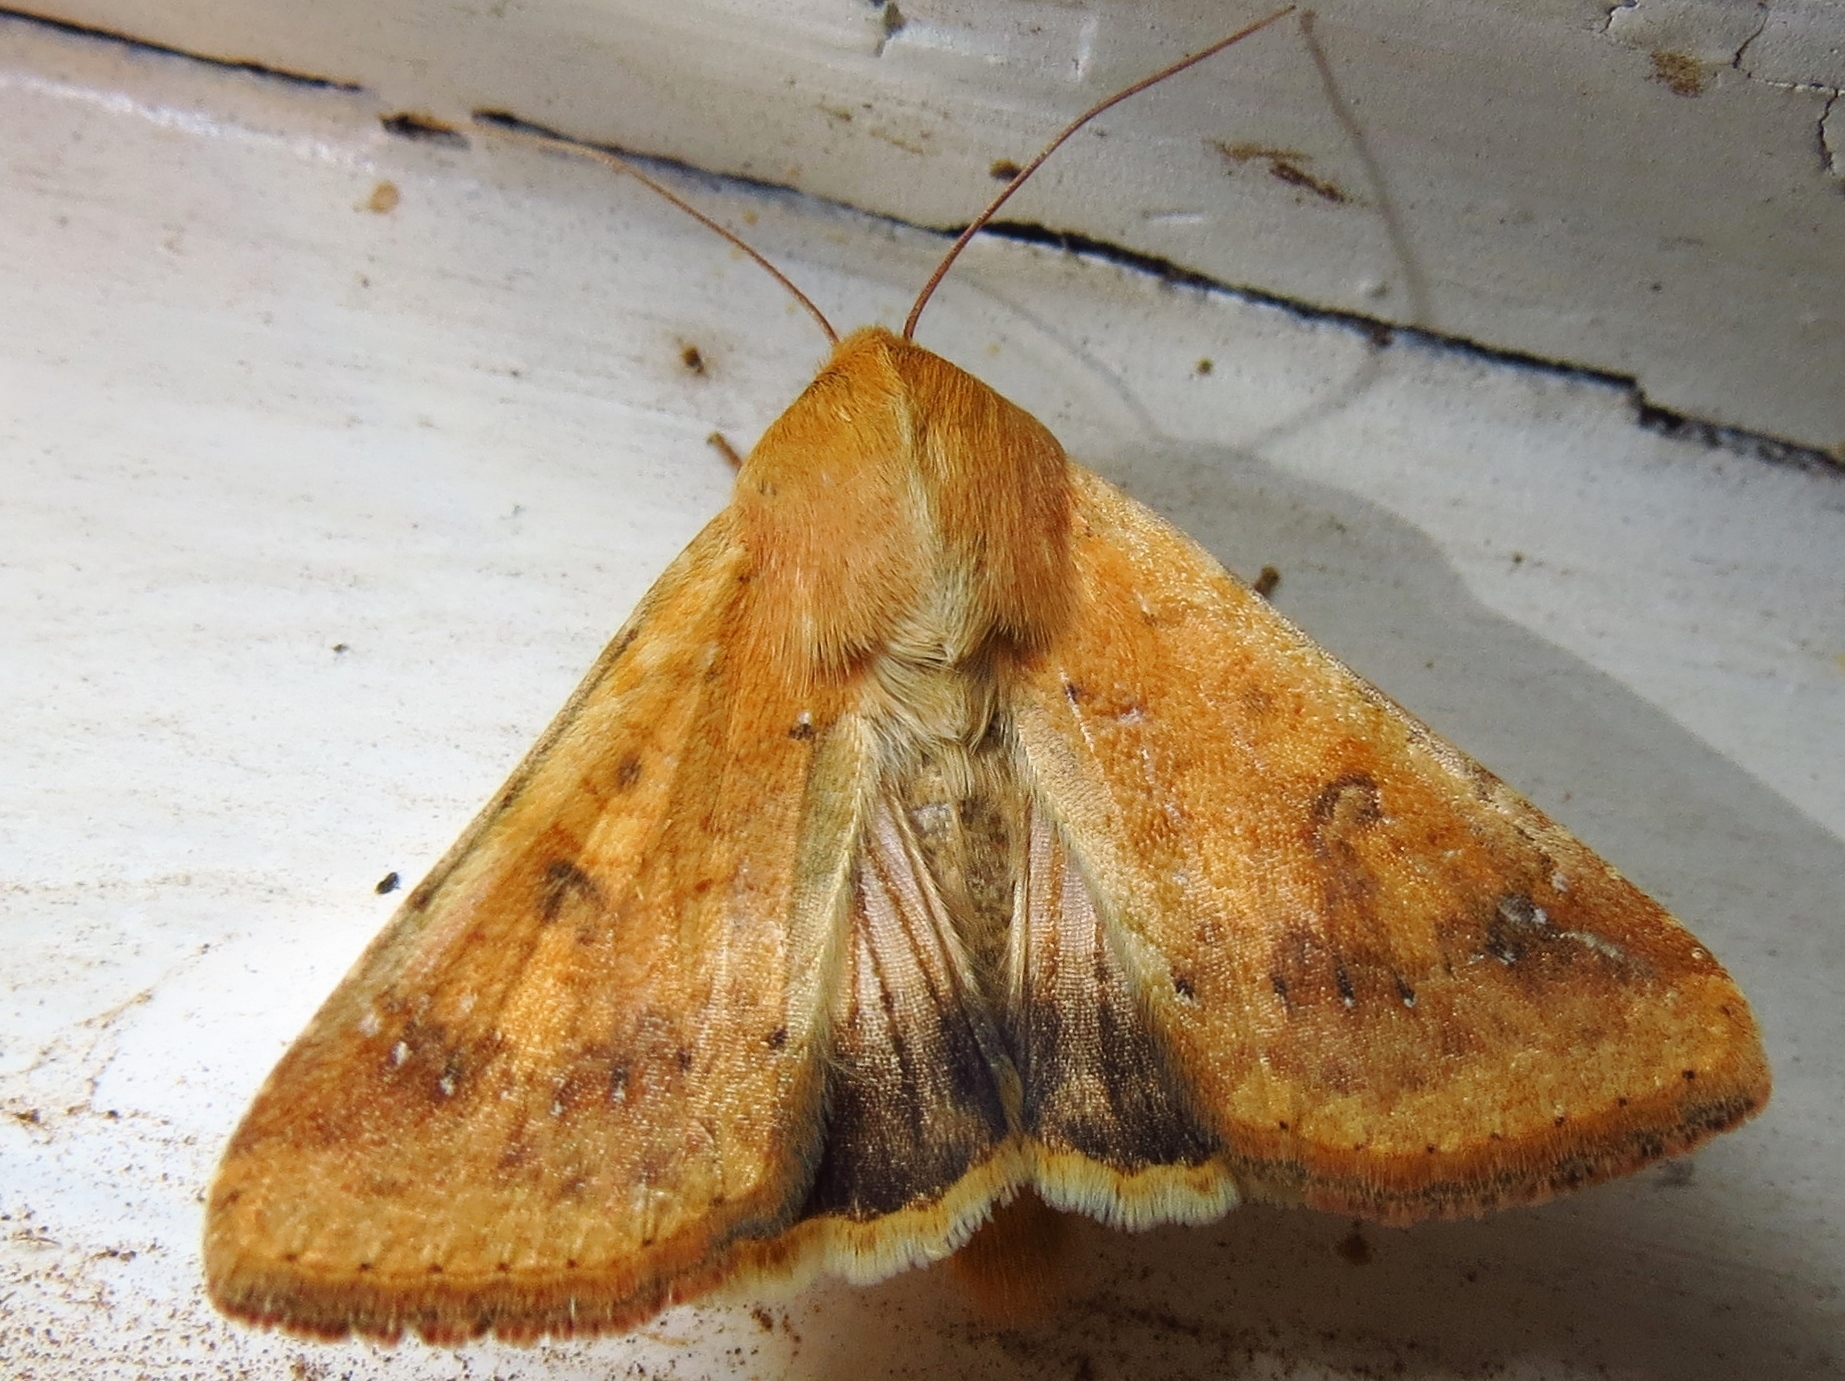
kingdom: Animalia
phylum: Arthropoda
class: Insecta
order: Lepidoptera
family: Noctuidae
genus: Helicoverpa
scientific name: Helicoverpa zea
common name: Bollworm
